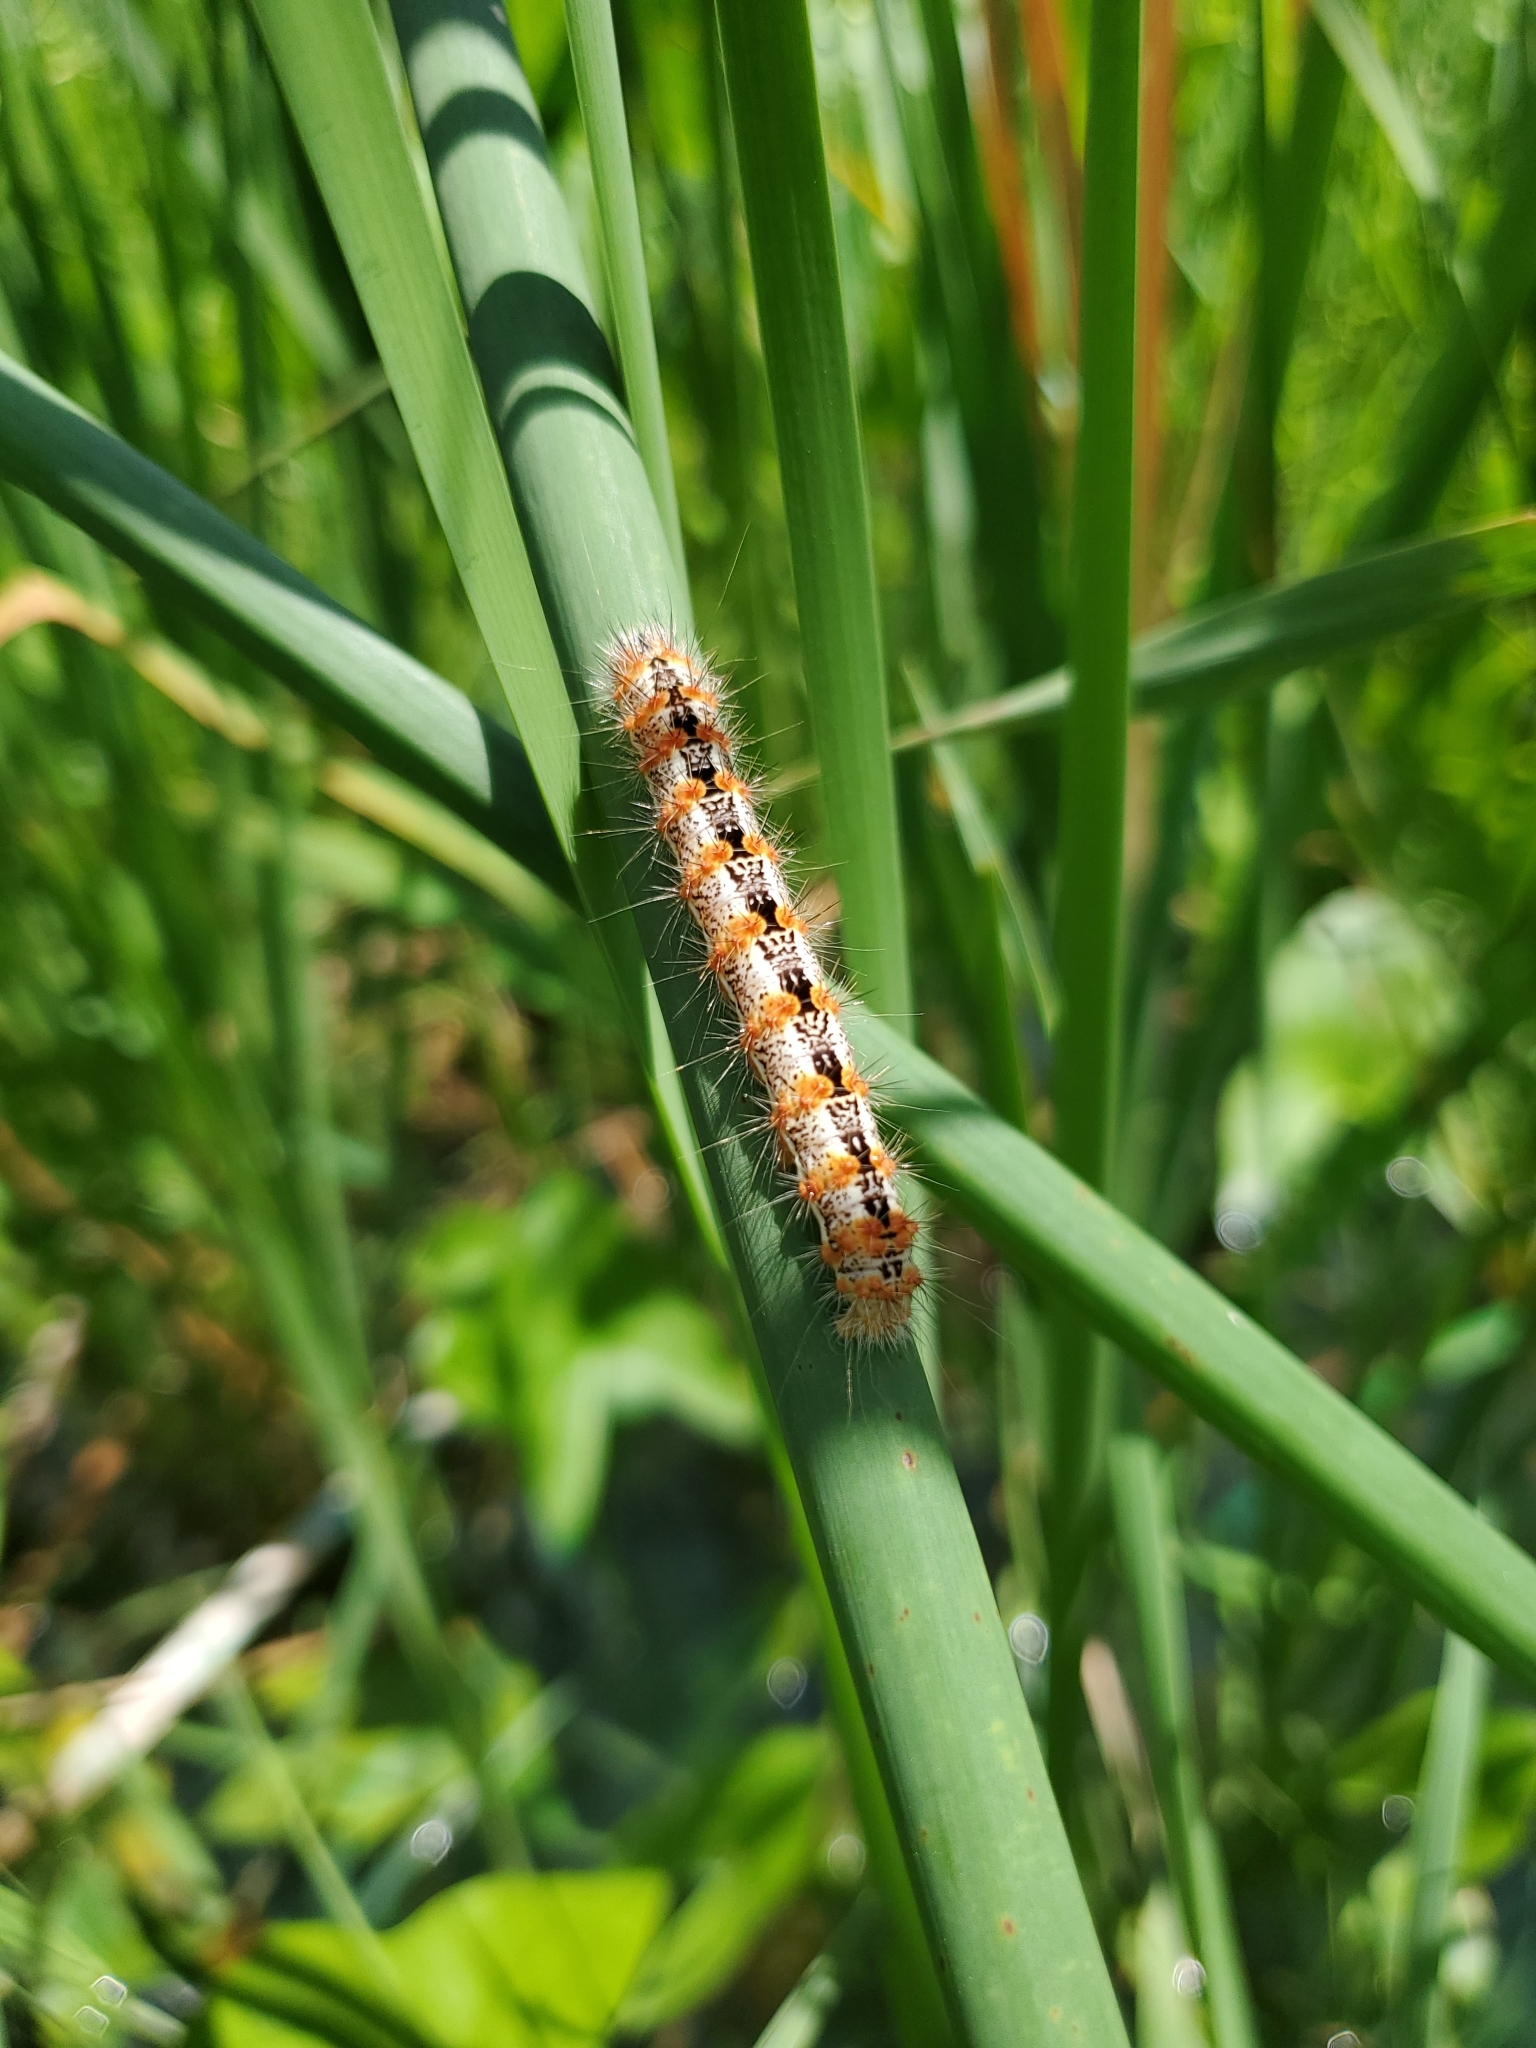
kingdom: Animalia
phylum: Arthropoda
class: Insecta
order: Lepidoptera
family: Noctuidae
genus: Acronicta
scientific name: Acronicta insularis
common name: Henry's marsh moth
